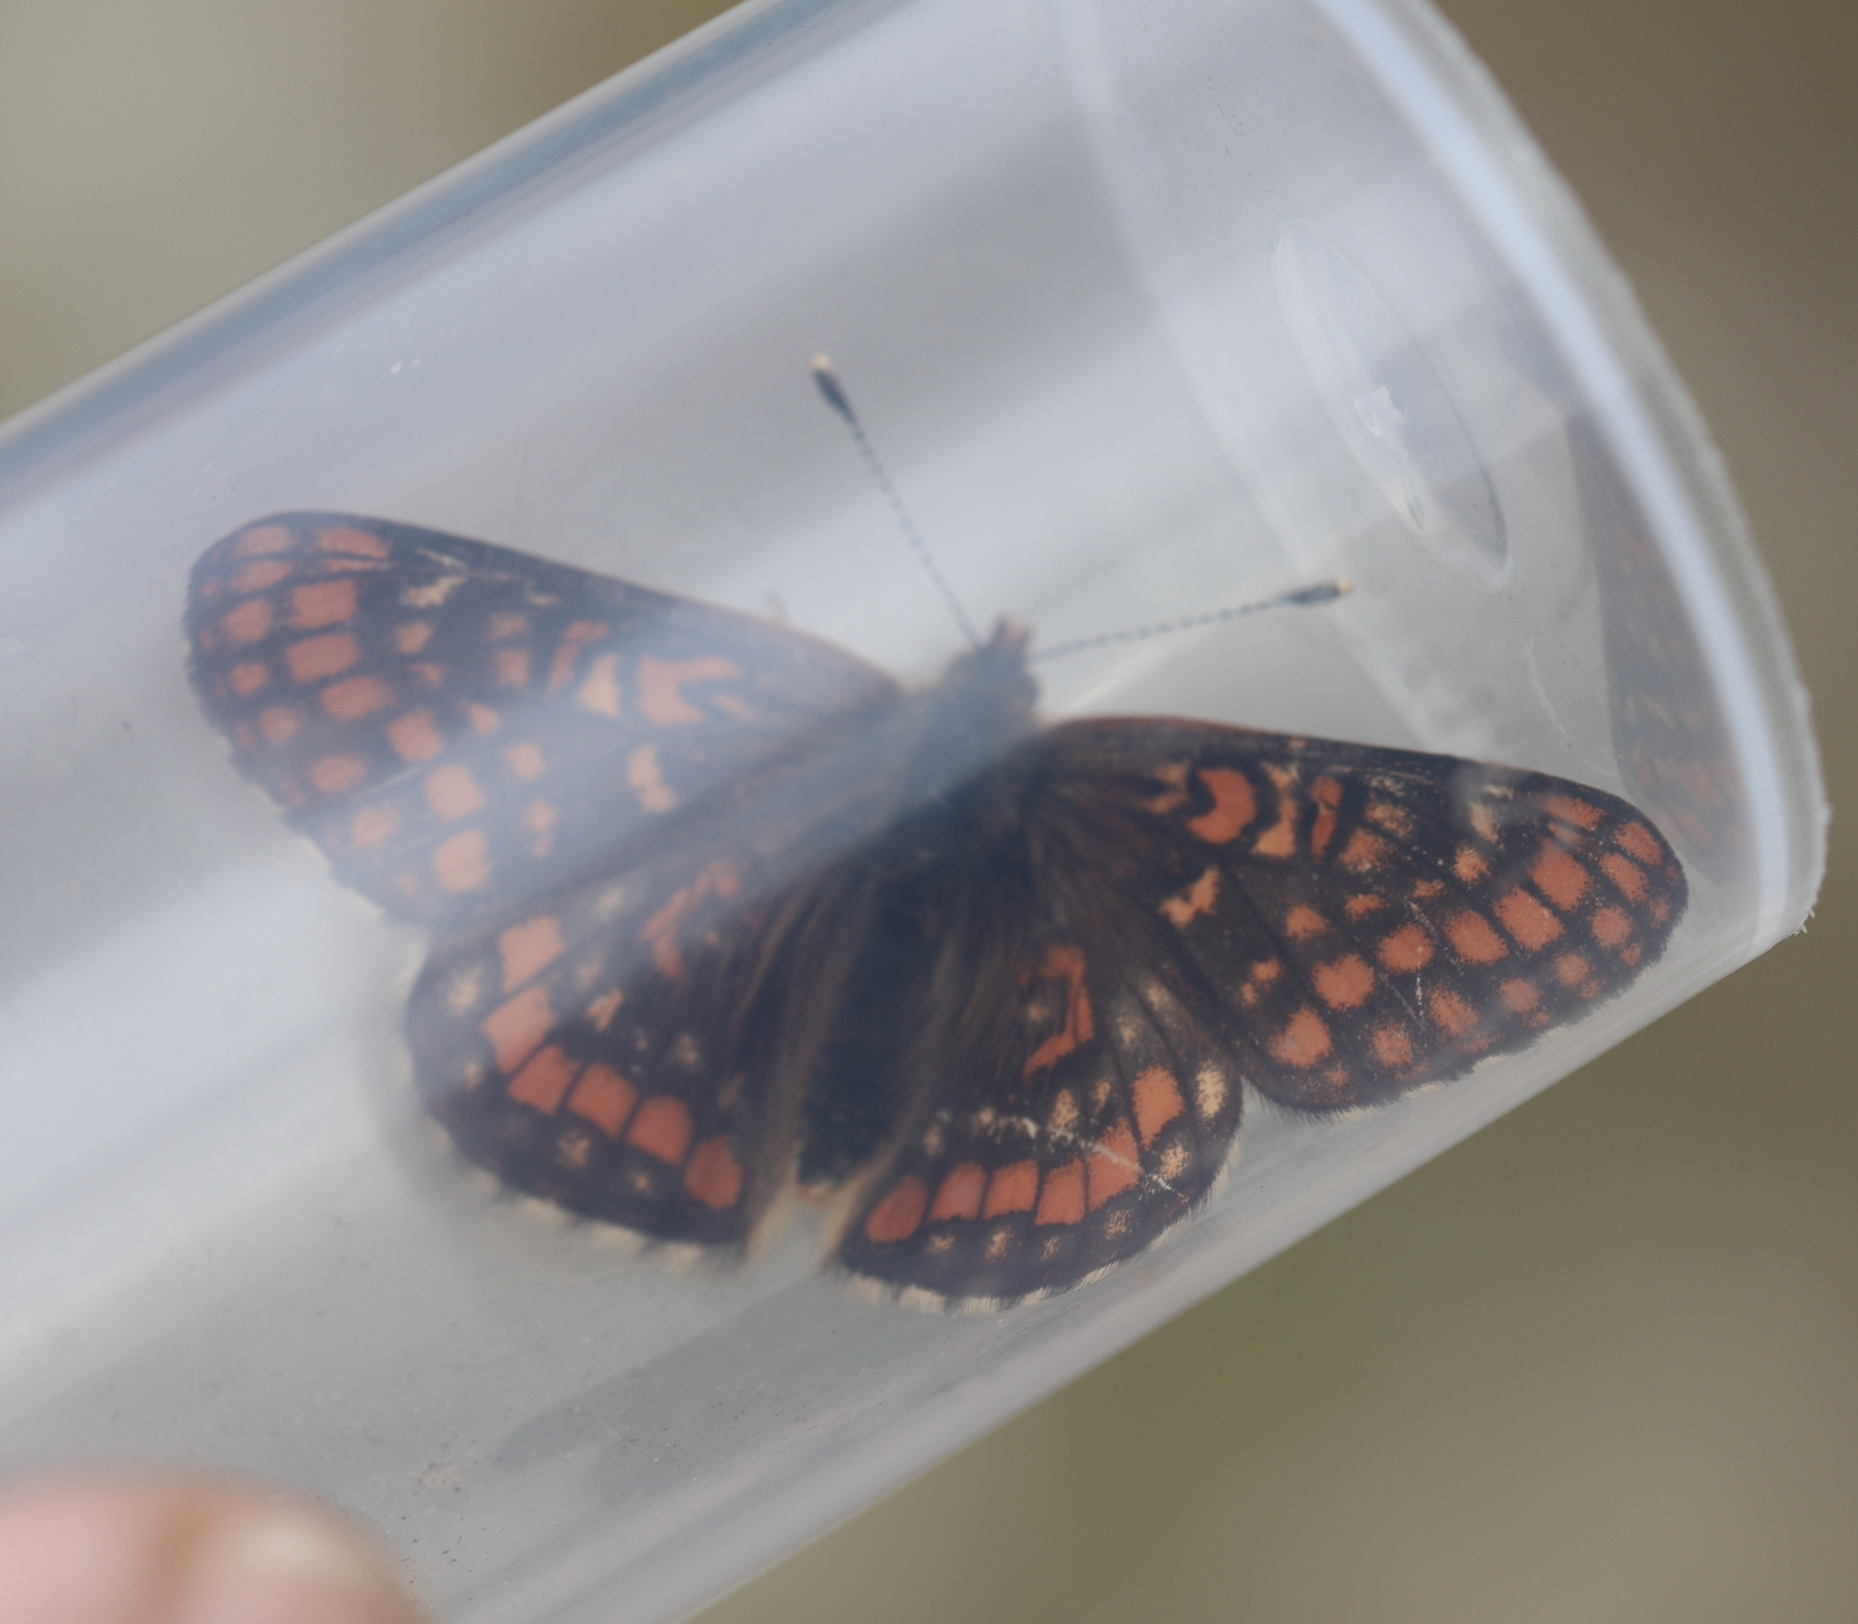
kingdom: Animalia
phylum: Arthropoda
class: Insecta
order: Lepidoptera
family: Nymphalidae
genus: Hypodryas
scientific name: Hypodryas intermedia
